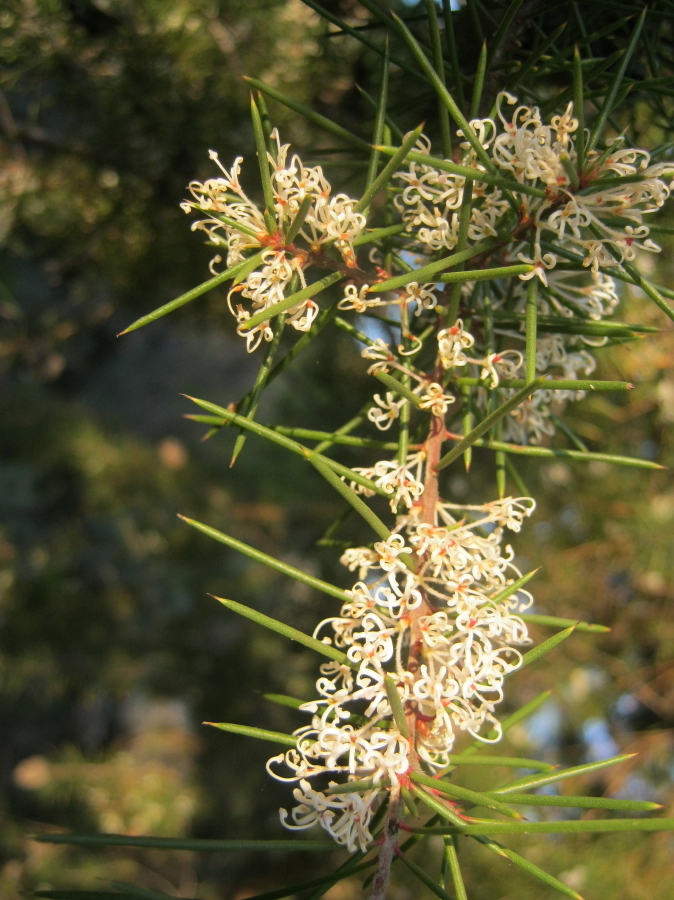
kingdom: Plantae
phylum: Tracheophyta
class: Magnoliopsida
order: Proteales
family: Proteaceae
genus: Hakea
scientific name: Hakea sericea
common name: Needle bush
